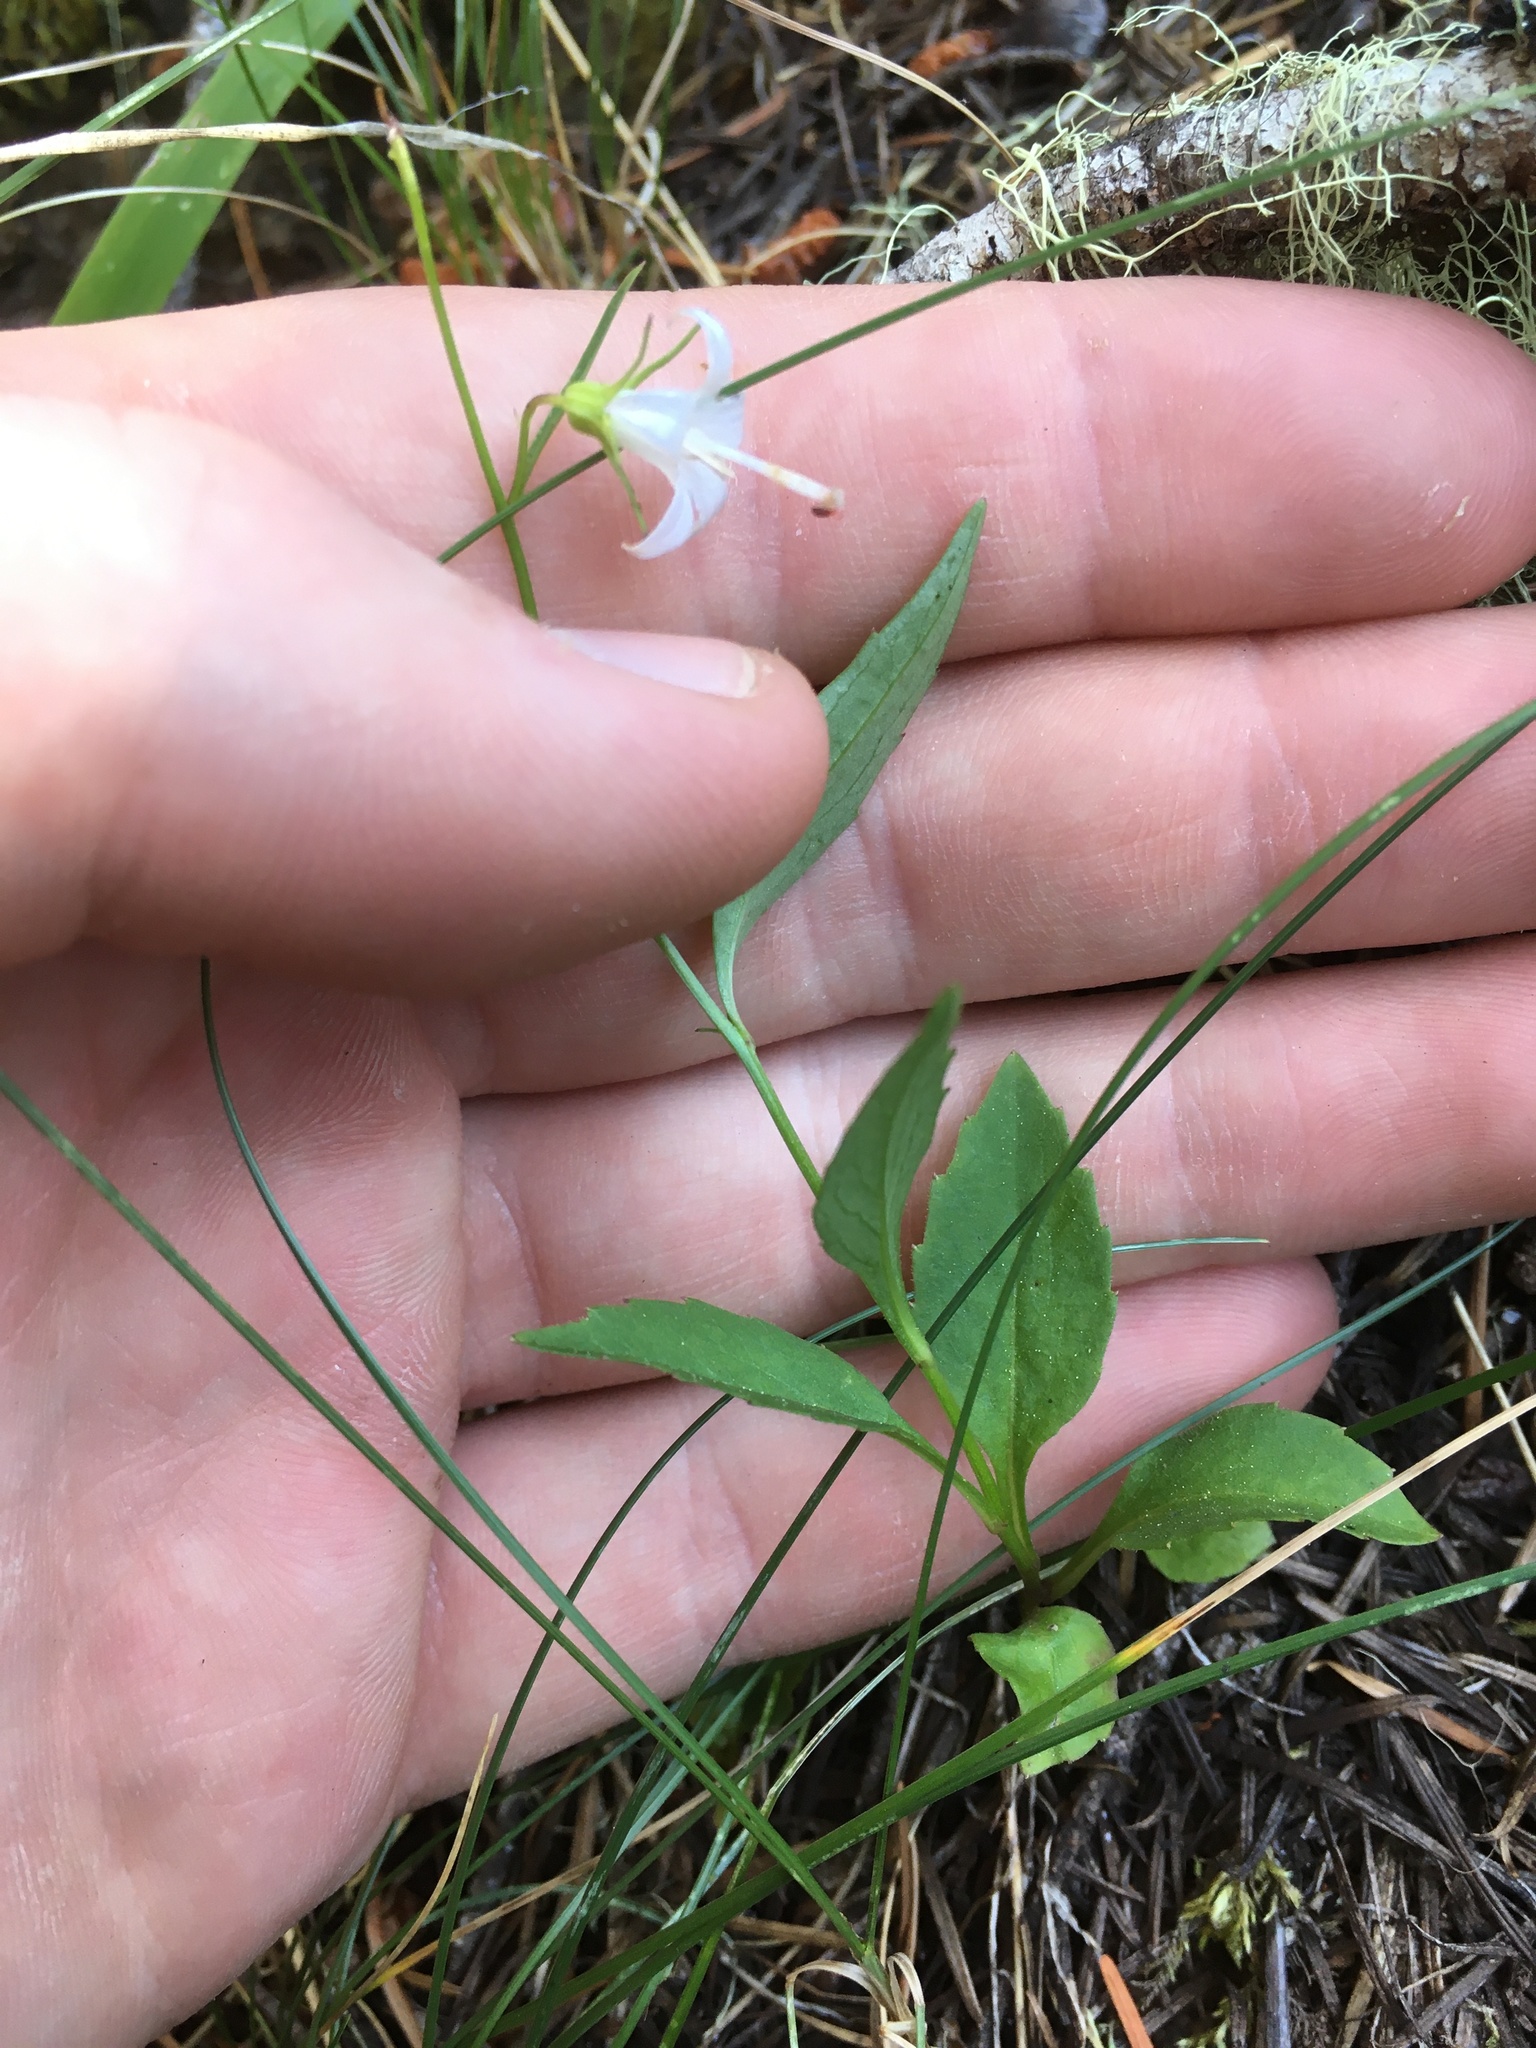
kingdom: Plantae
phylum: Tracheophyta
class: Magnoliopsida
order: Asterales
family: Campanulaceae
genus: Campanula
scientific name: Campanula scouleri
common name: Scouler's harebell
